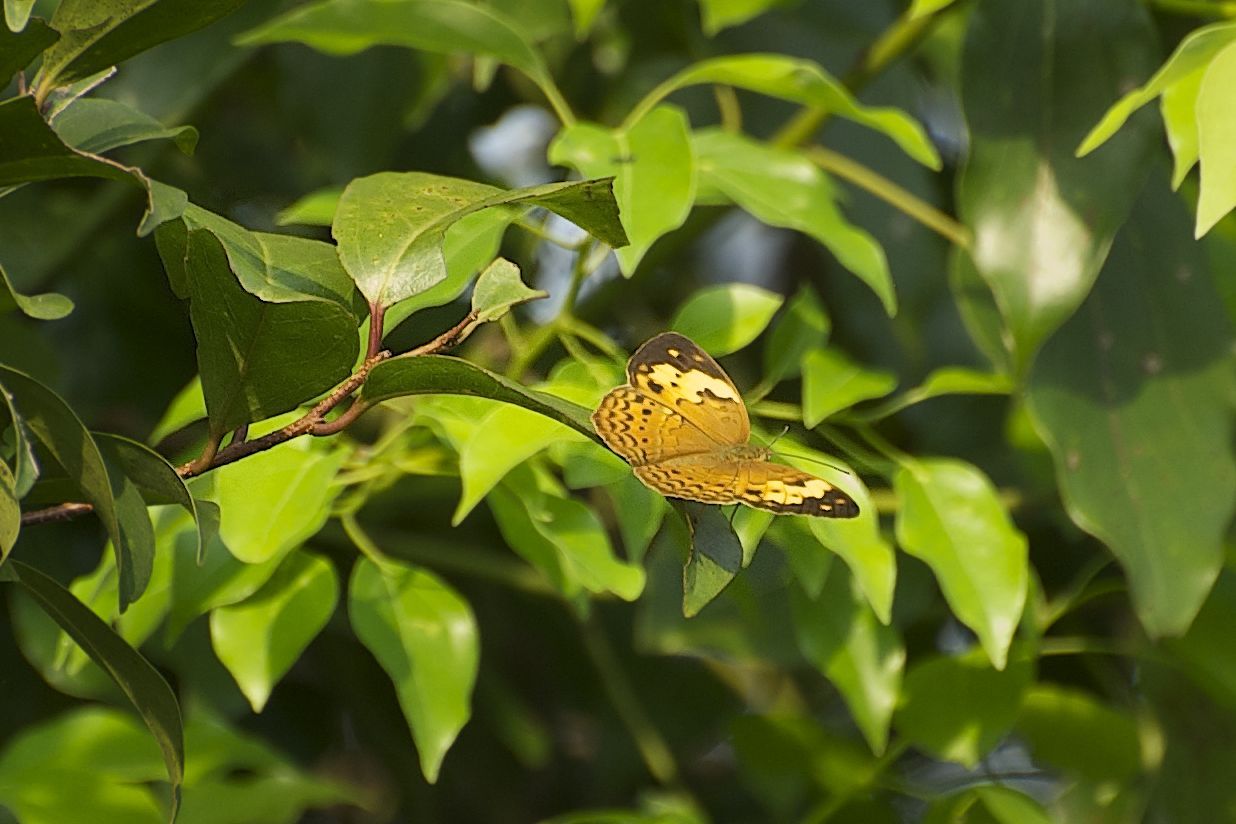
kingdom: Animalia
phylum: Arthropoda
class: Insecta
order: Lepidoptera
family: Nymphalidae
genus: Cupha
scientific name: Cupha erymanthis
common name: Rustic
